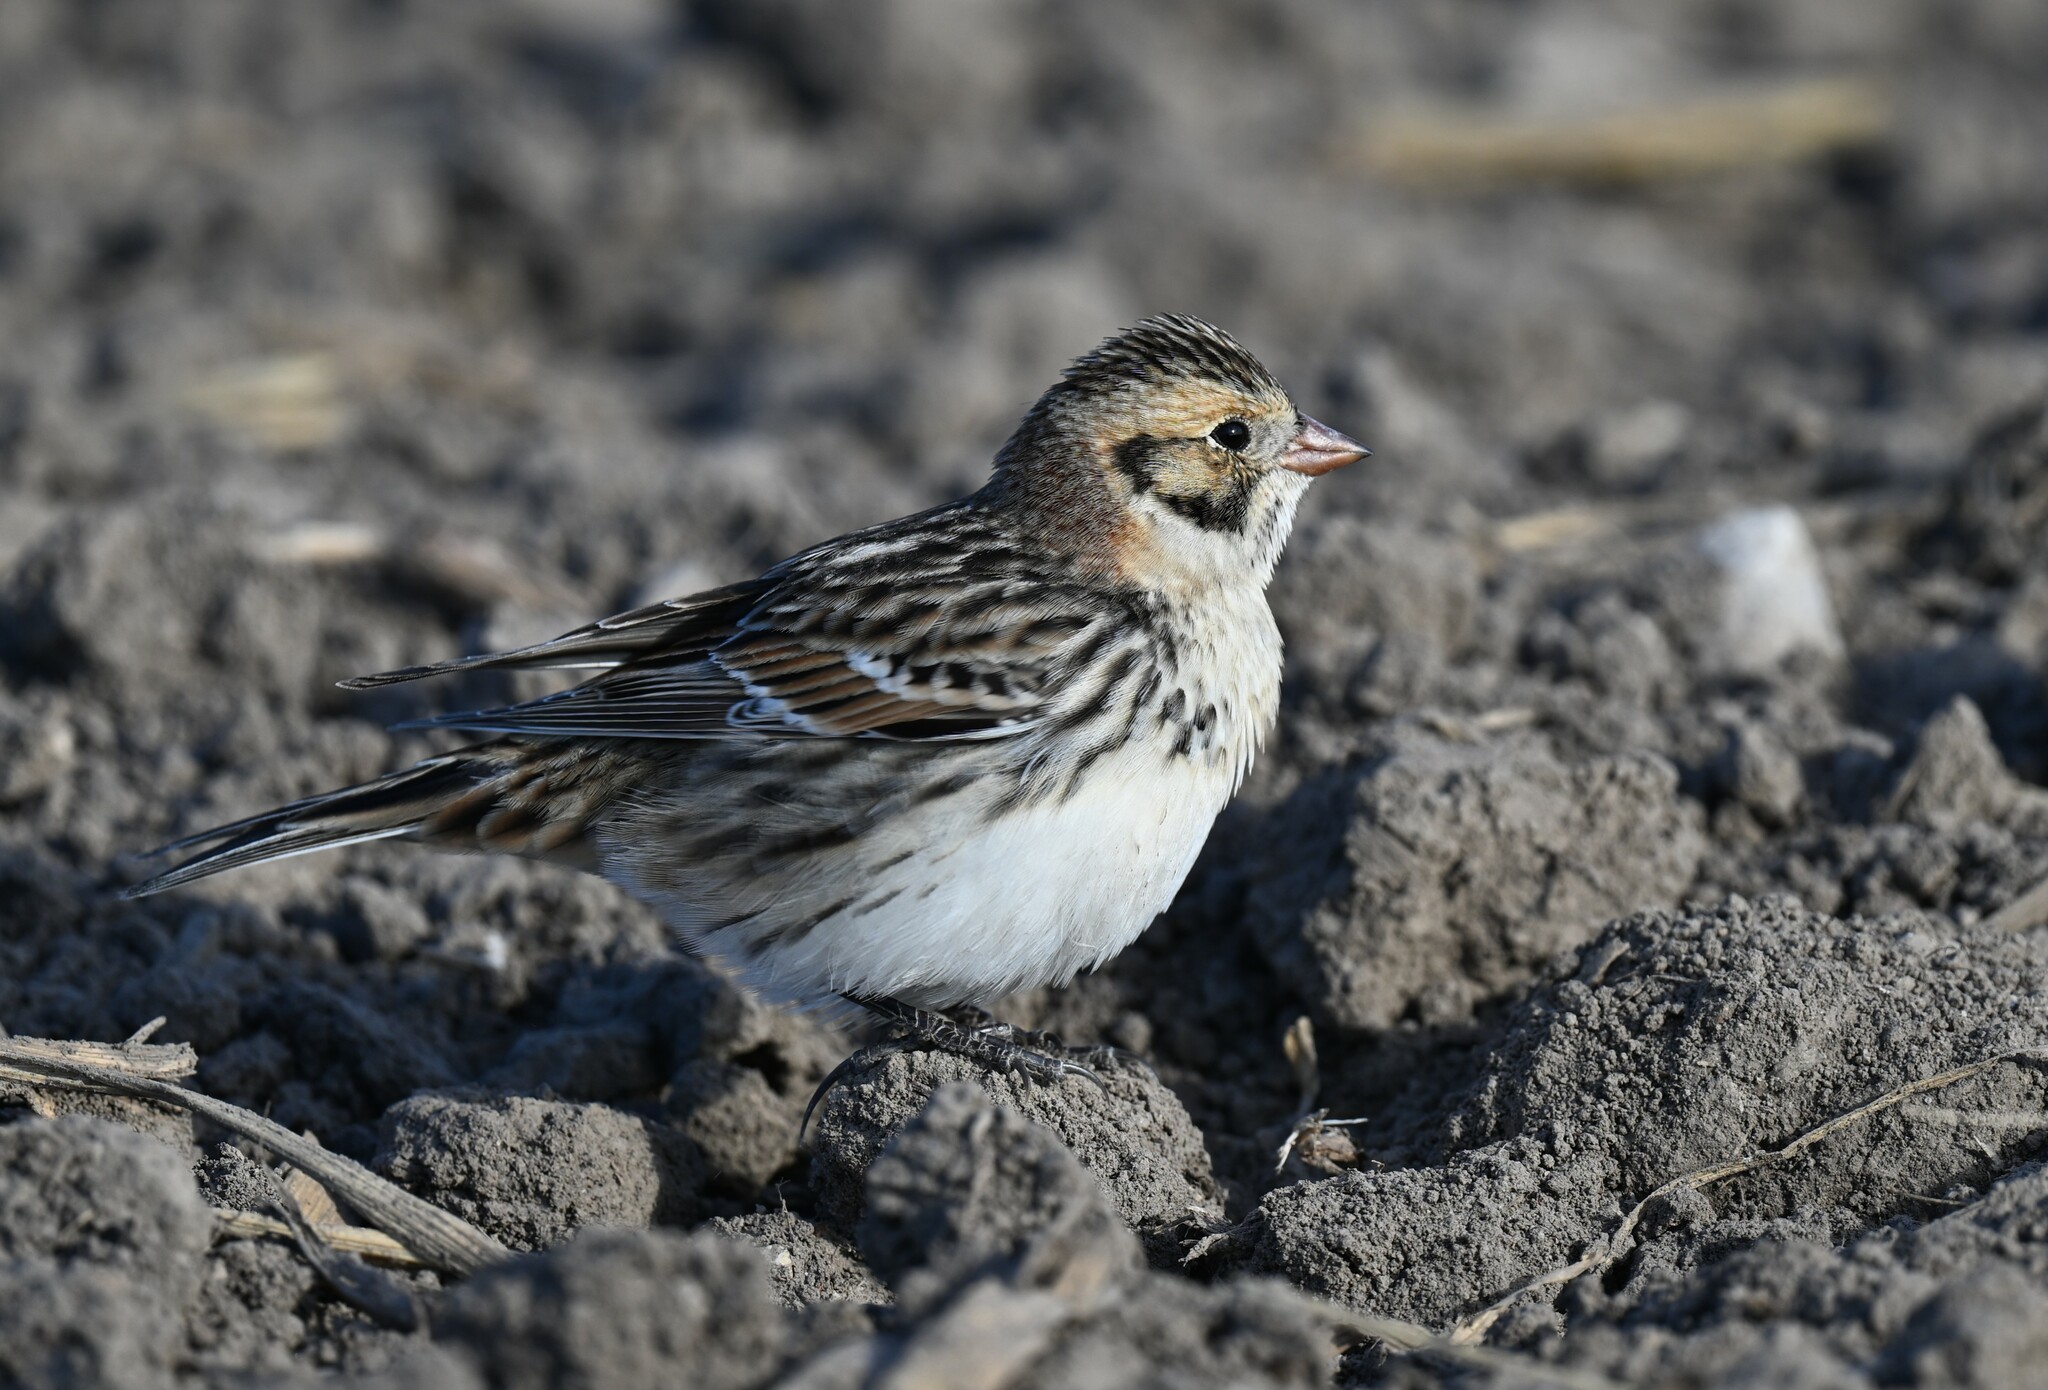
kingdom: Animalia
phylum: Chordata
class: Aves
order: Passeriformes
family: Calcariidae
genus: Calcarius
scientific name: Calcarius lapponicus
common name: Lapland longspur
